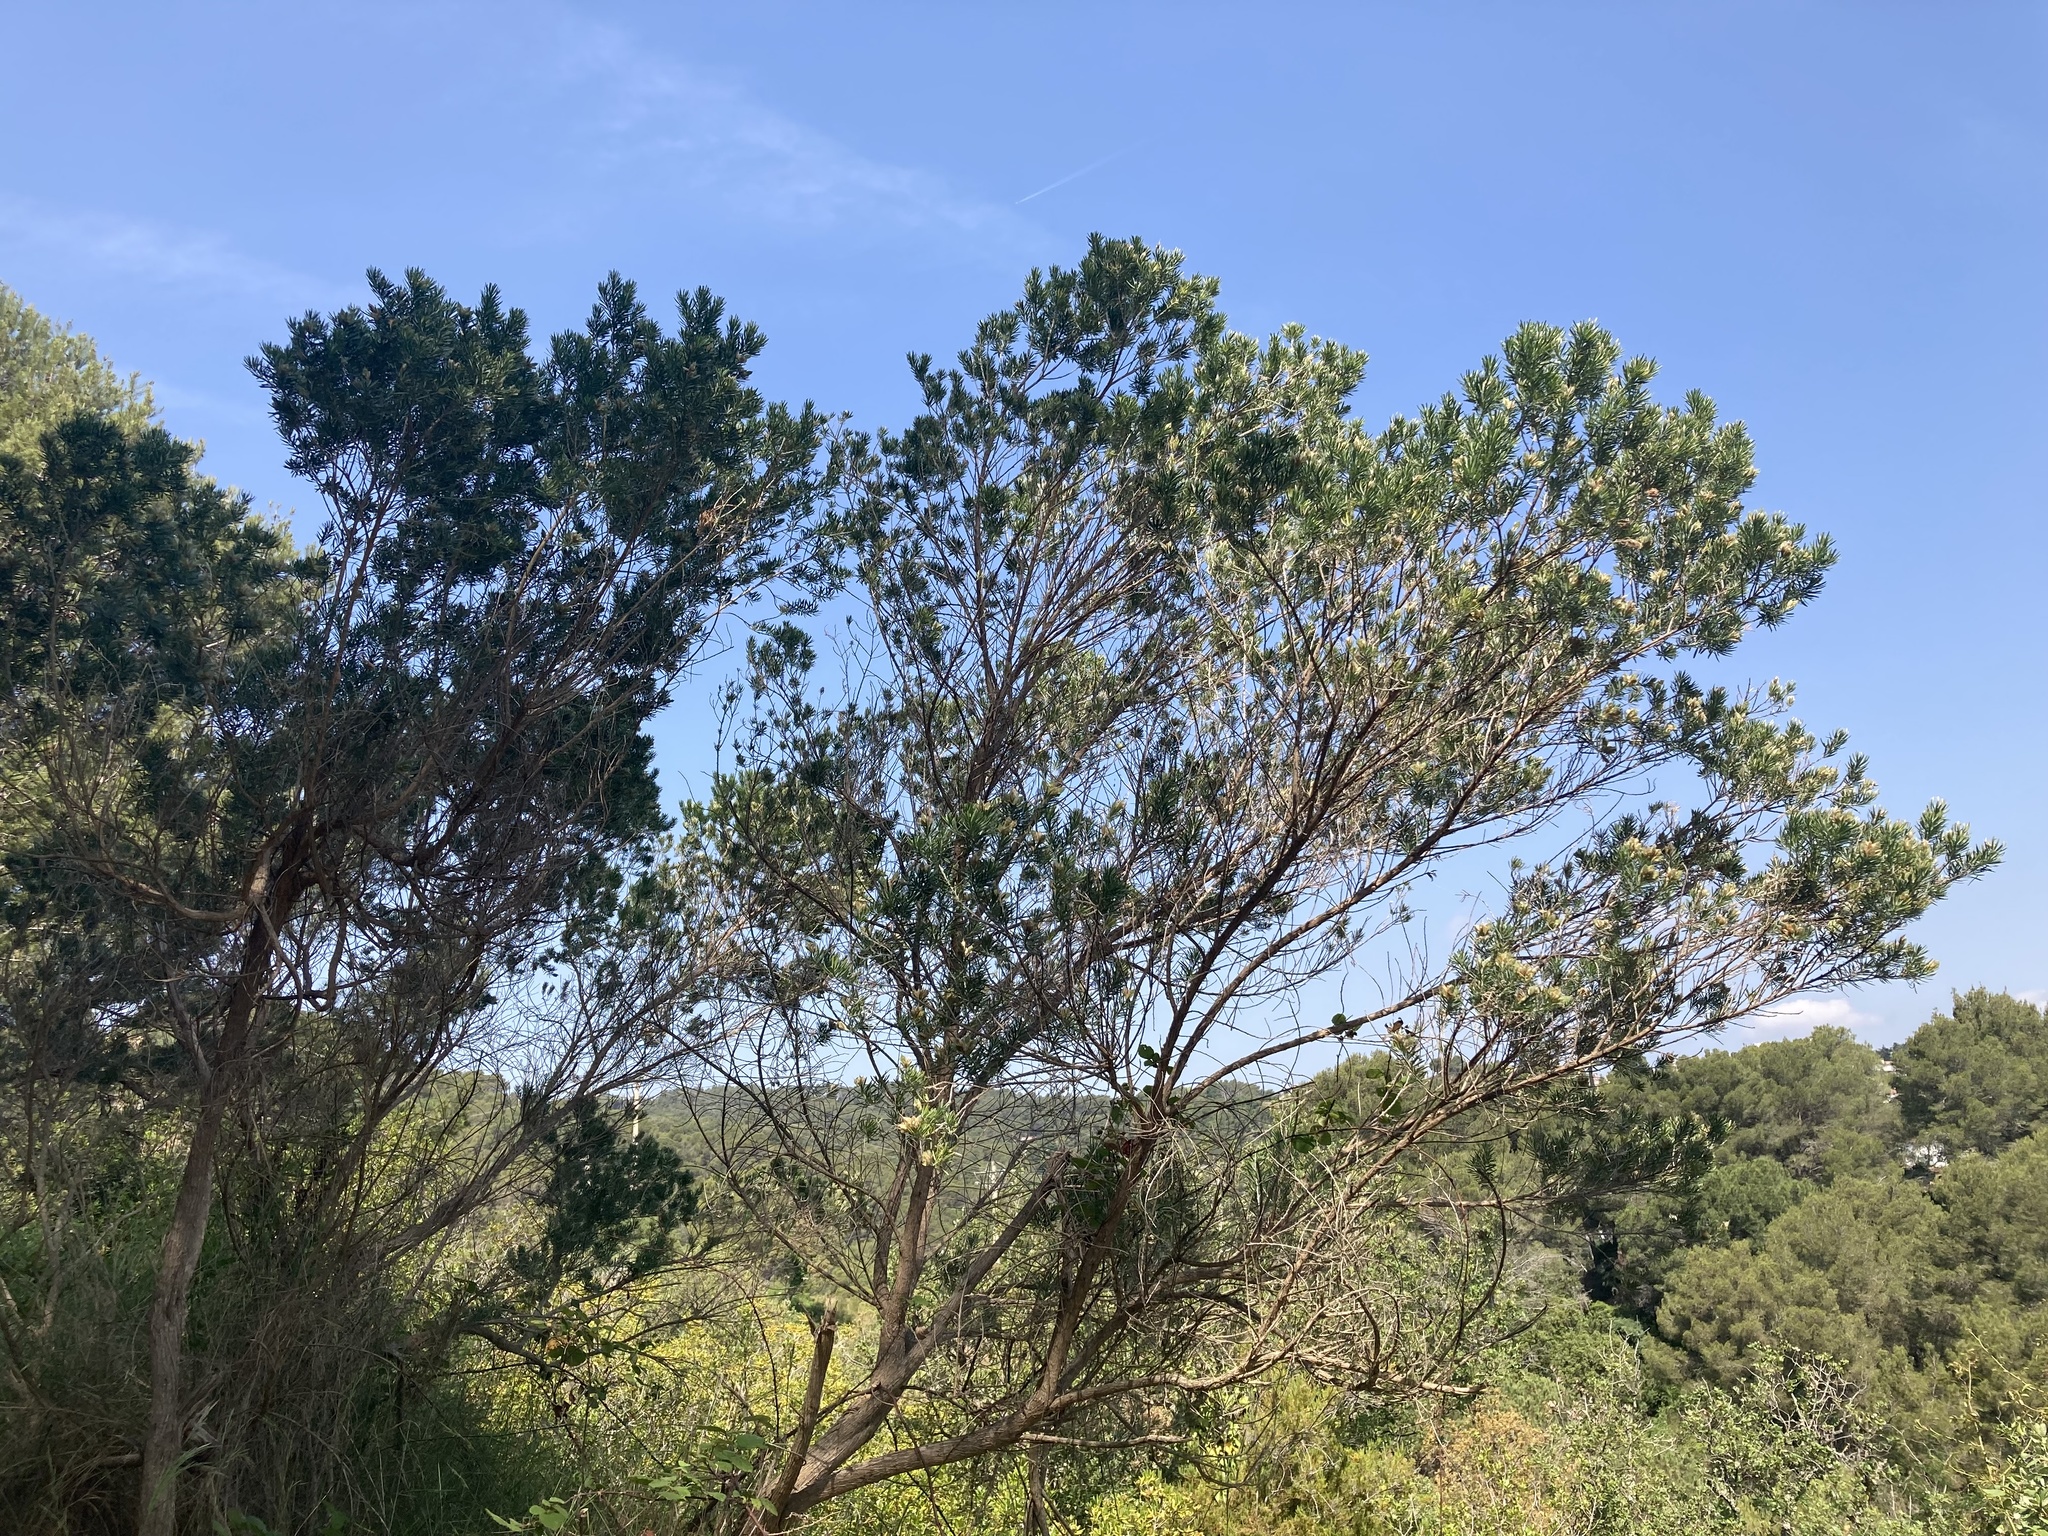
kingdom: Plantae
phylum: Tracheophyta
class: Magnoliopsida
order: Fabales
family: Fabaceae
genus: Genista
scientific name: Genista linifolia
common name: Mediterranean broom
